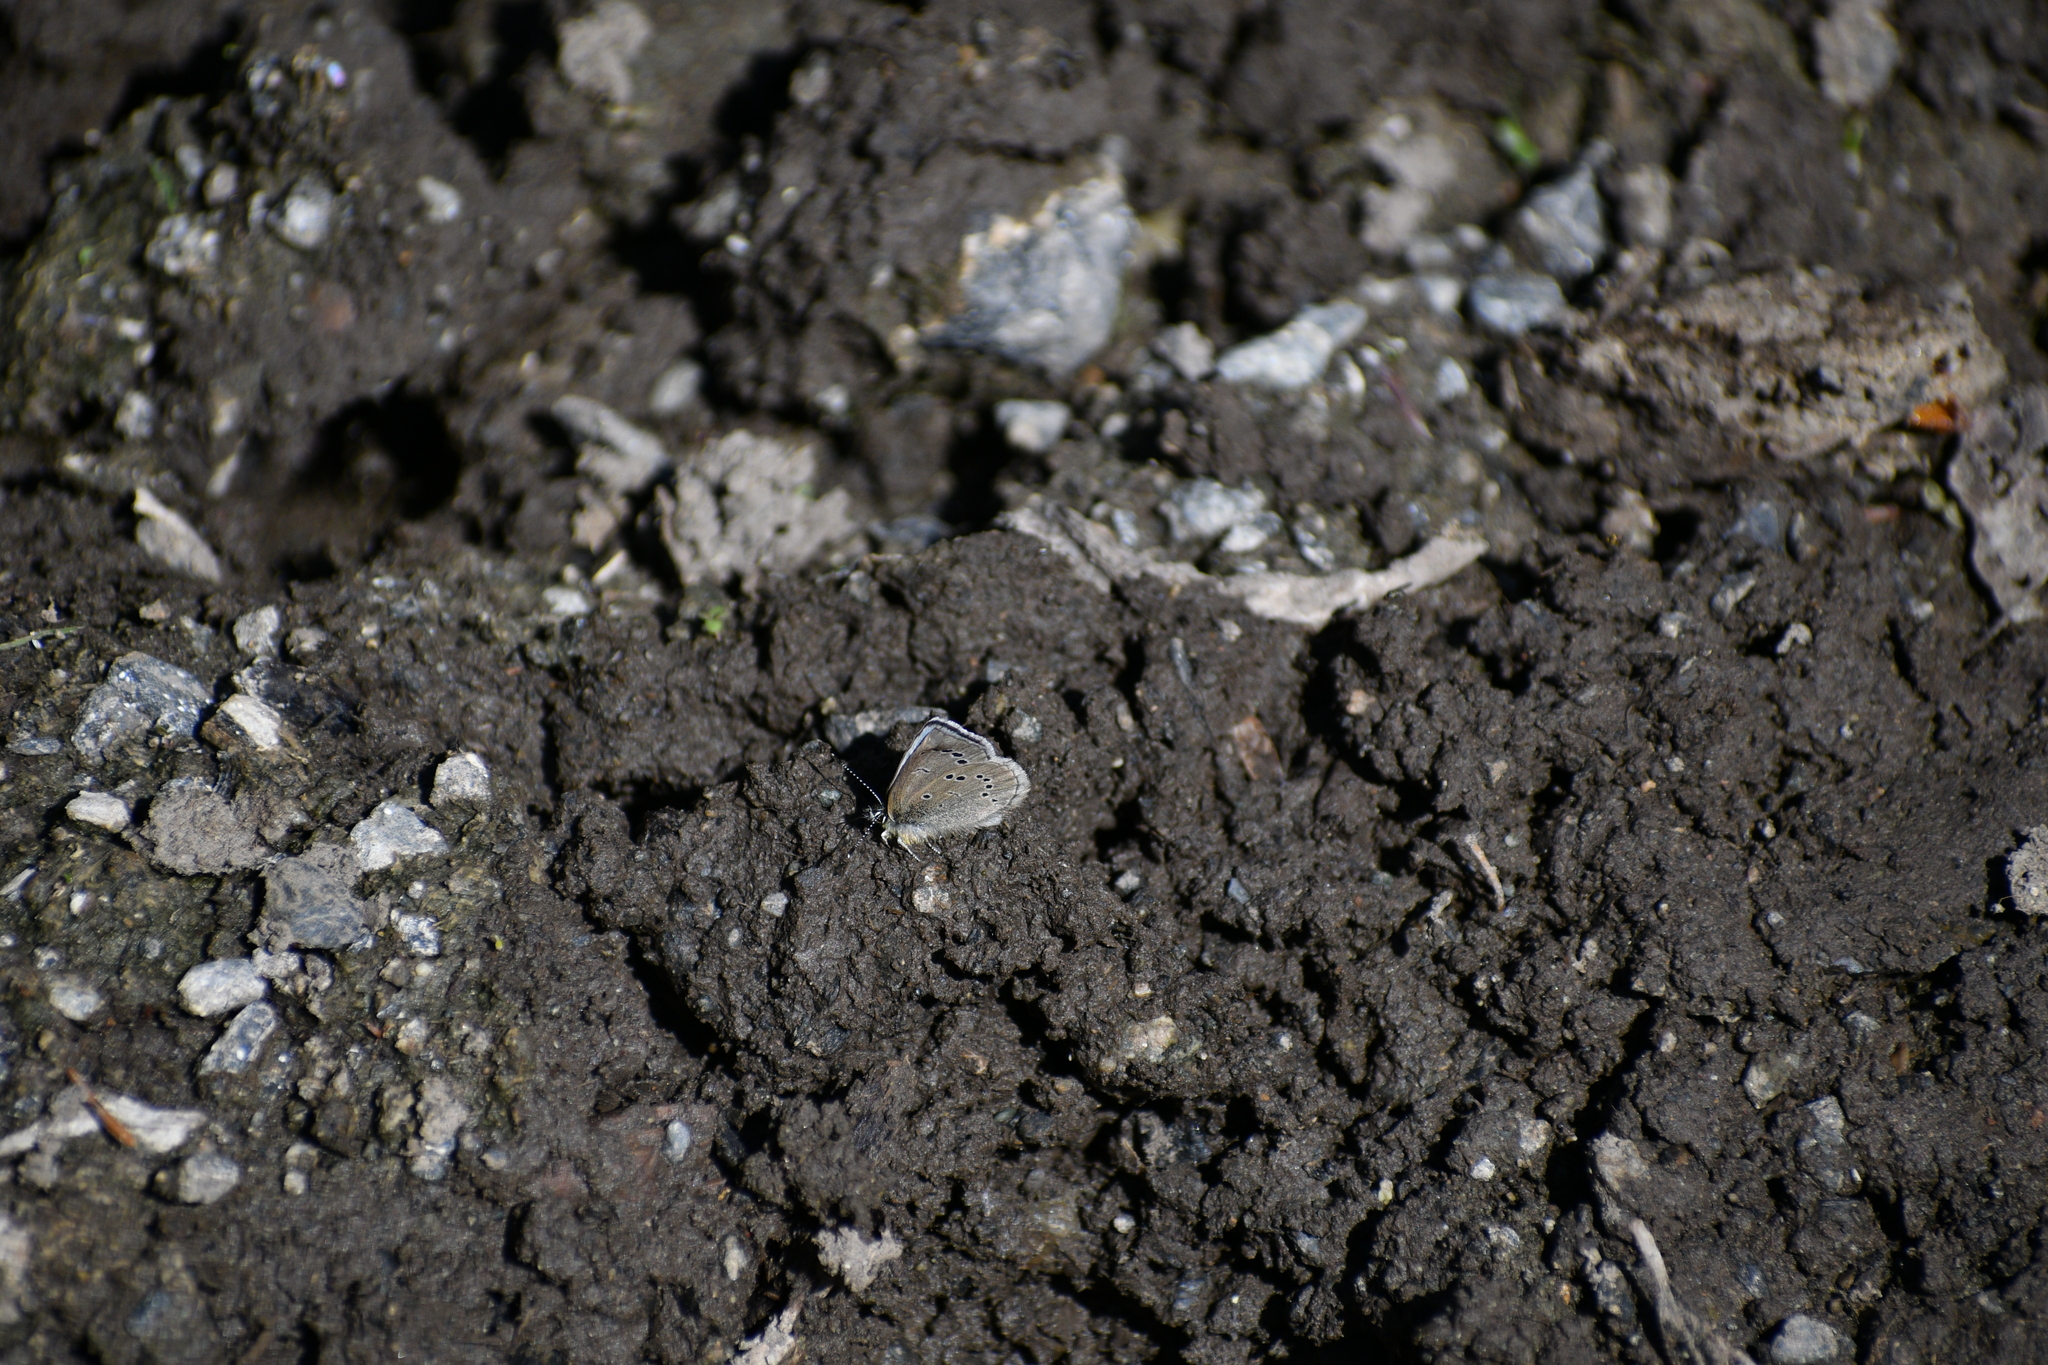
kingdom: Animalia
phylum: Arthropoda
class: Insecta
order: Lepidoptera
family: Lycaenidae
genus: Glaucopsyche
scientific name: Glaucopsyche lygdamus
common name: Silvery blue
